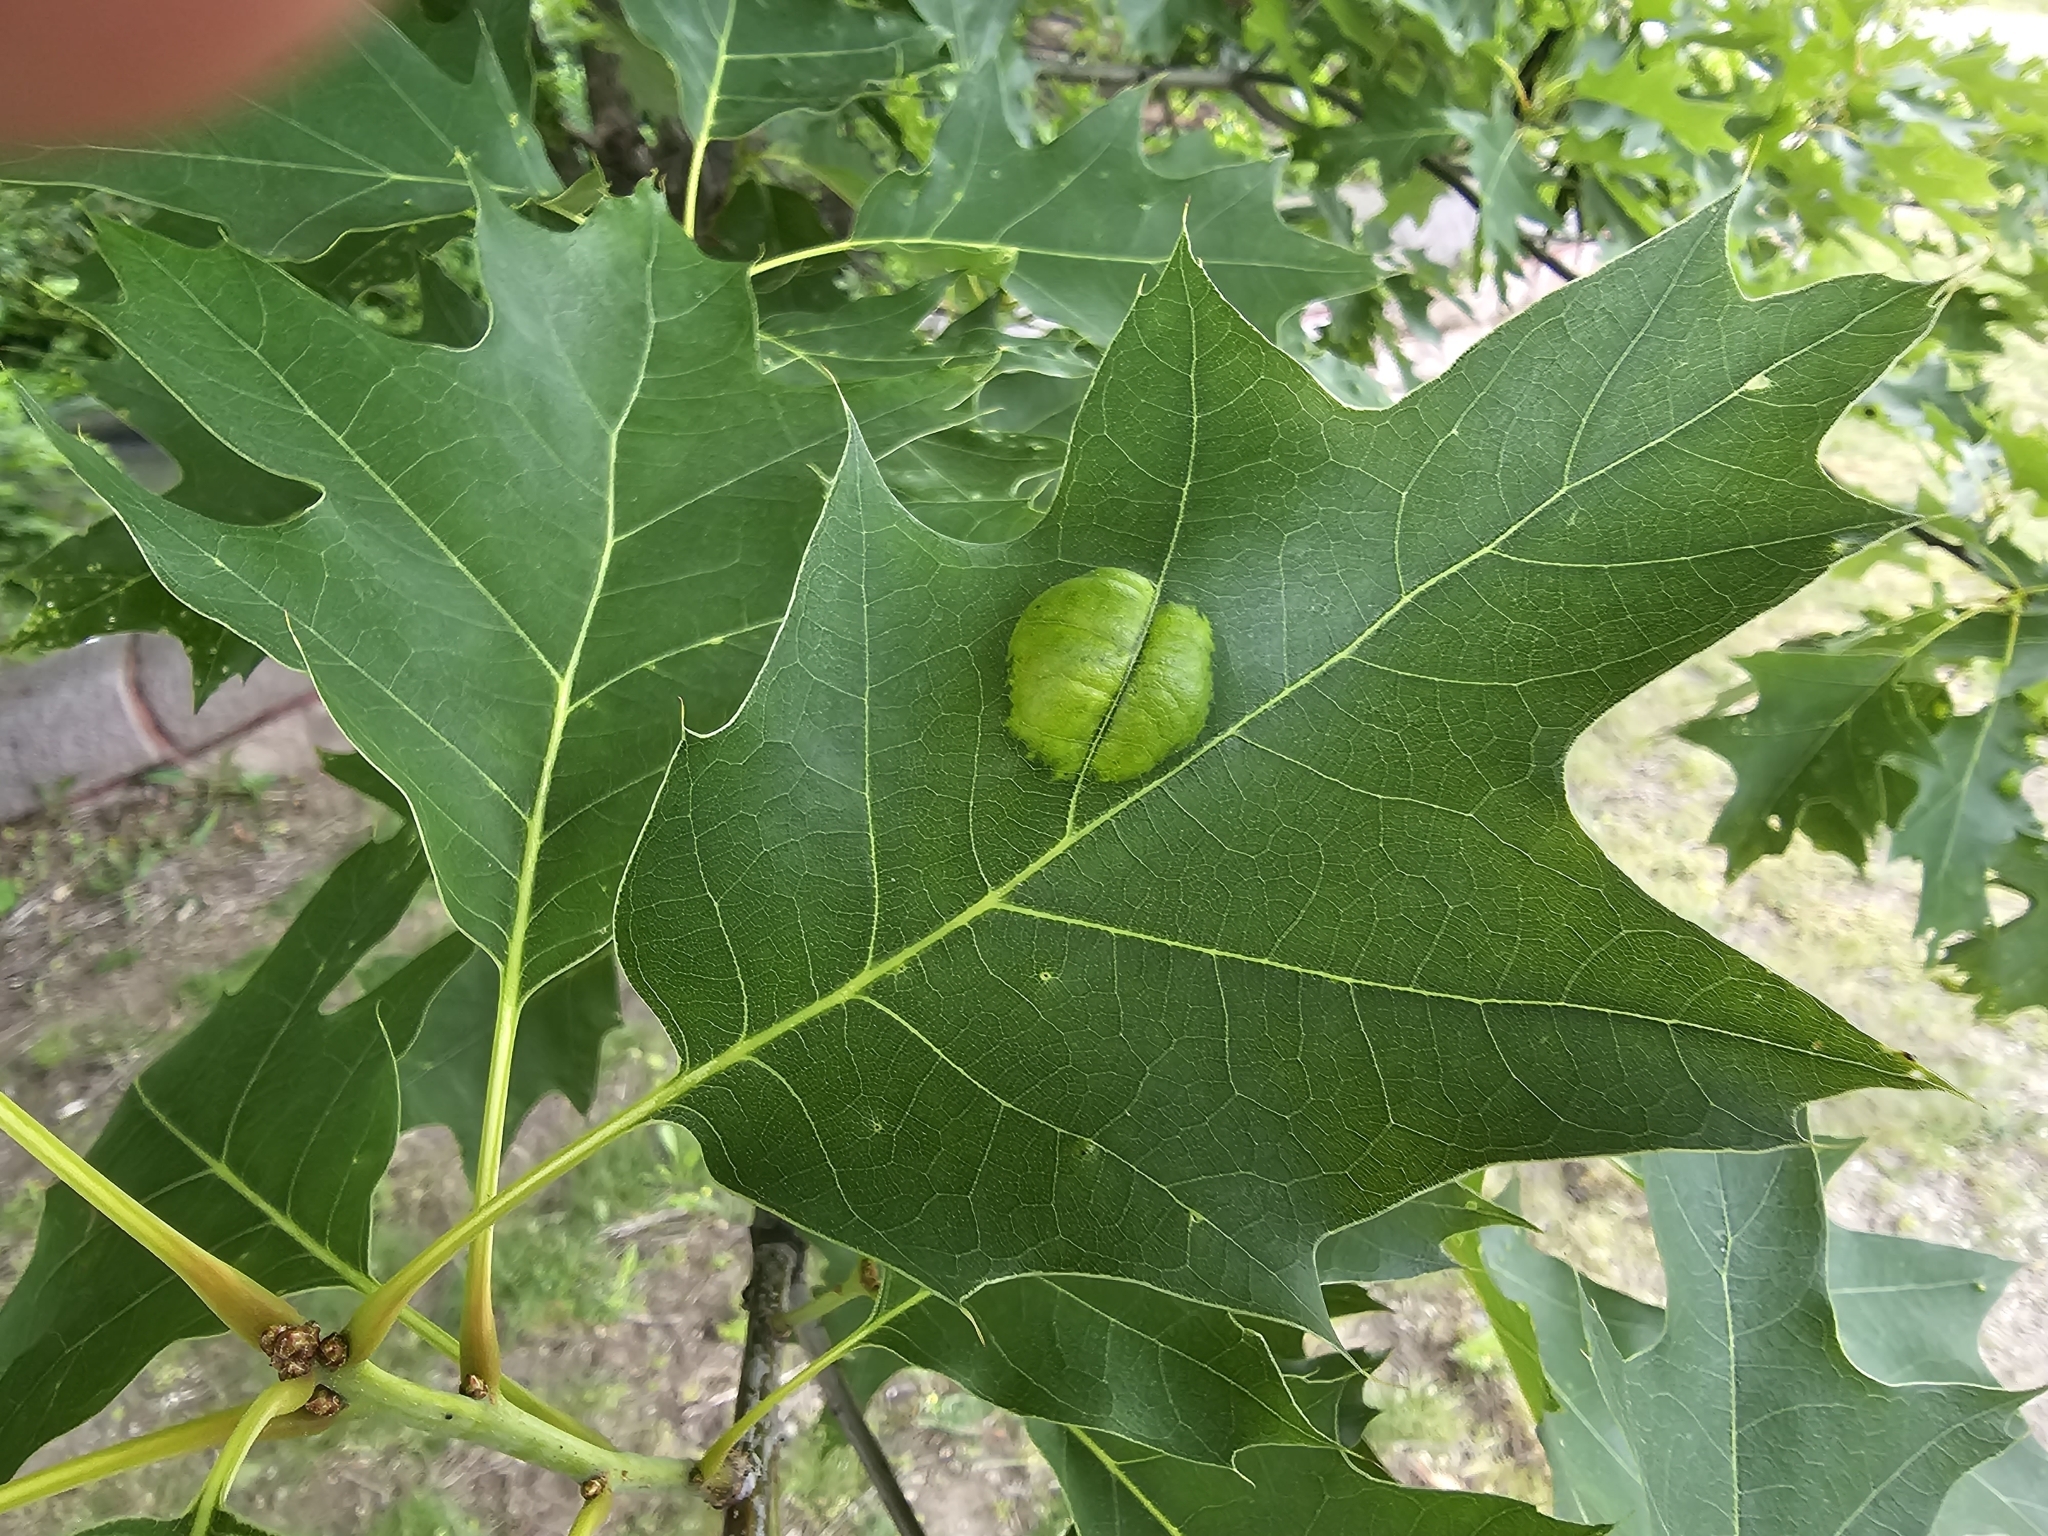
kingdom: Fungi
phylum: Ascomycota
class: Taphrinomycetes
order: Taphrinales
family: Taphrinaceae
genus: Taphrina
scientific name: Taphrina caerulescens
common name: Oak leaf blister
